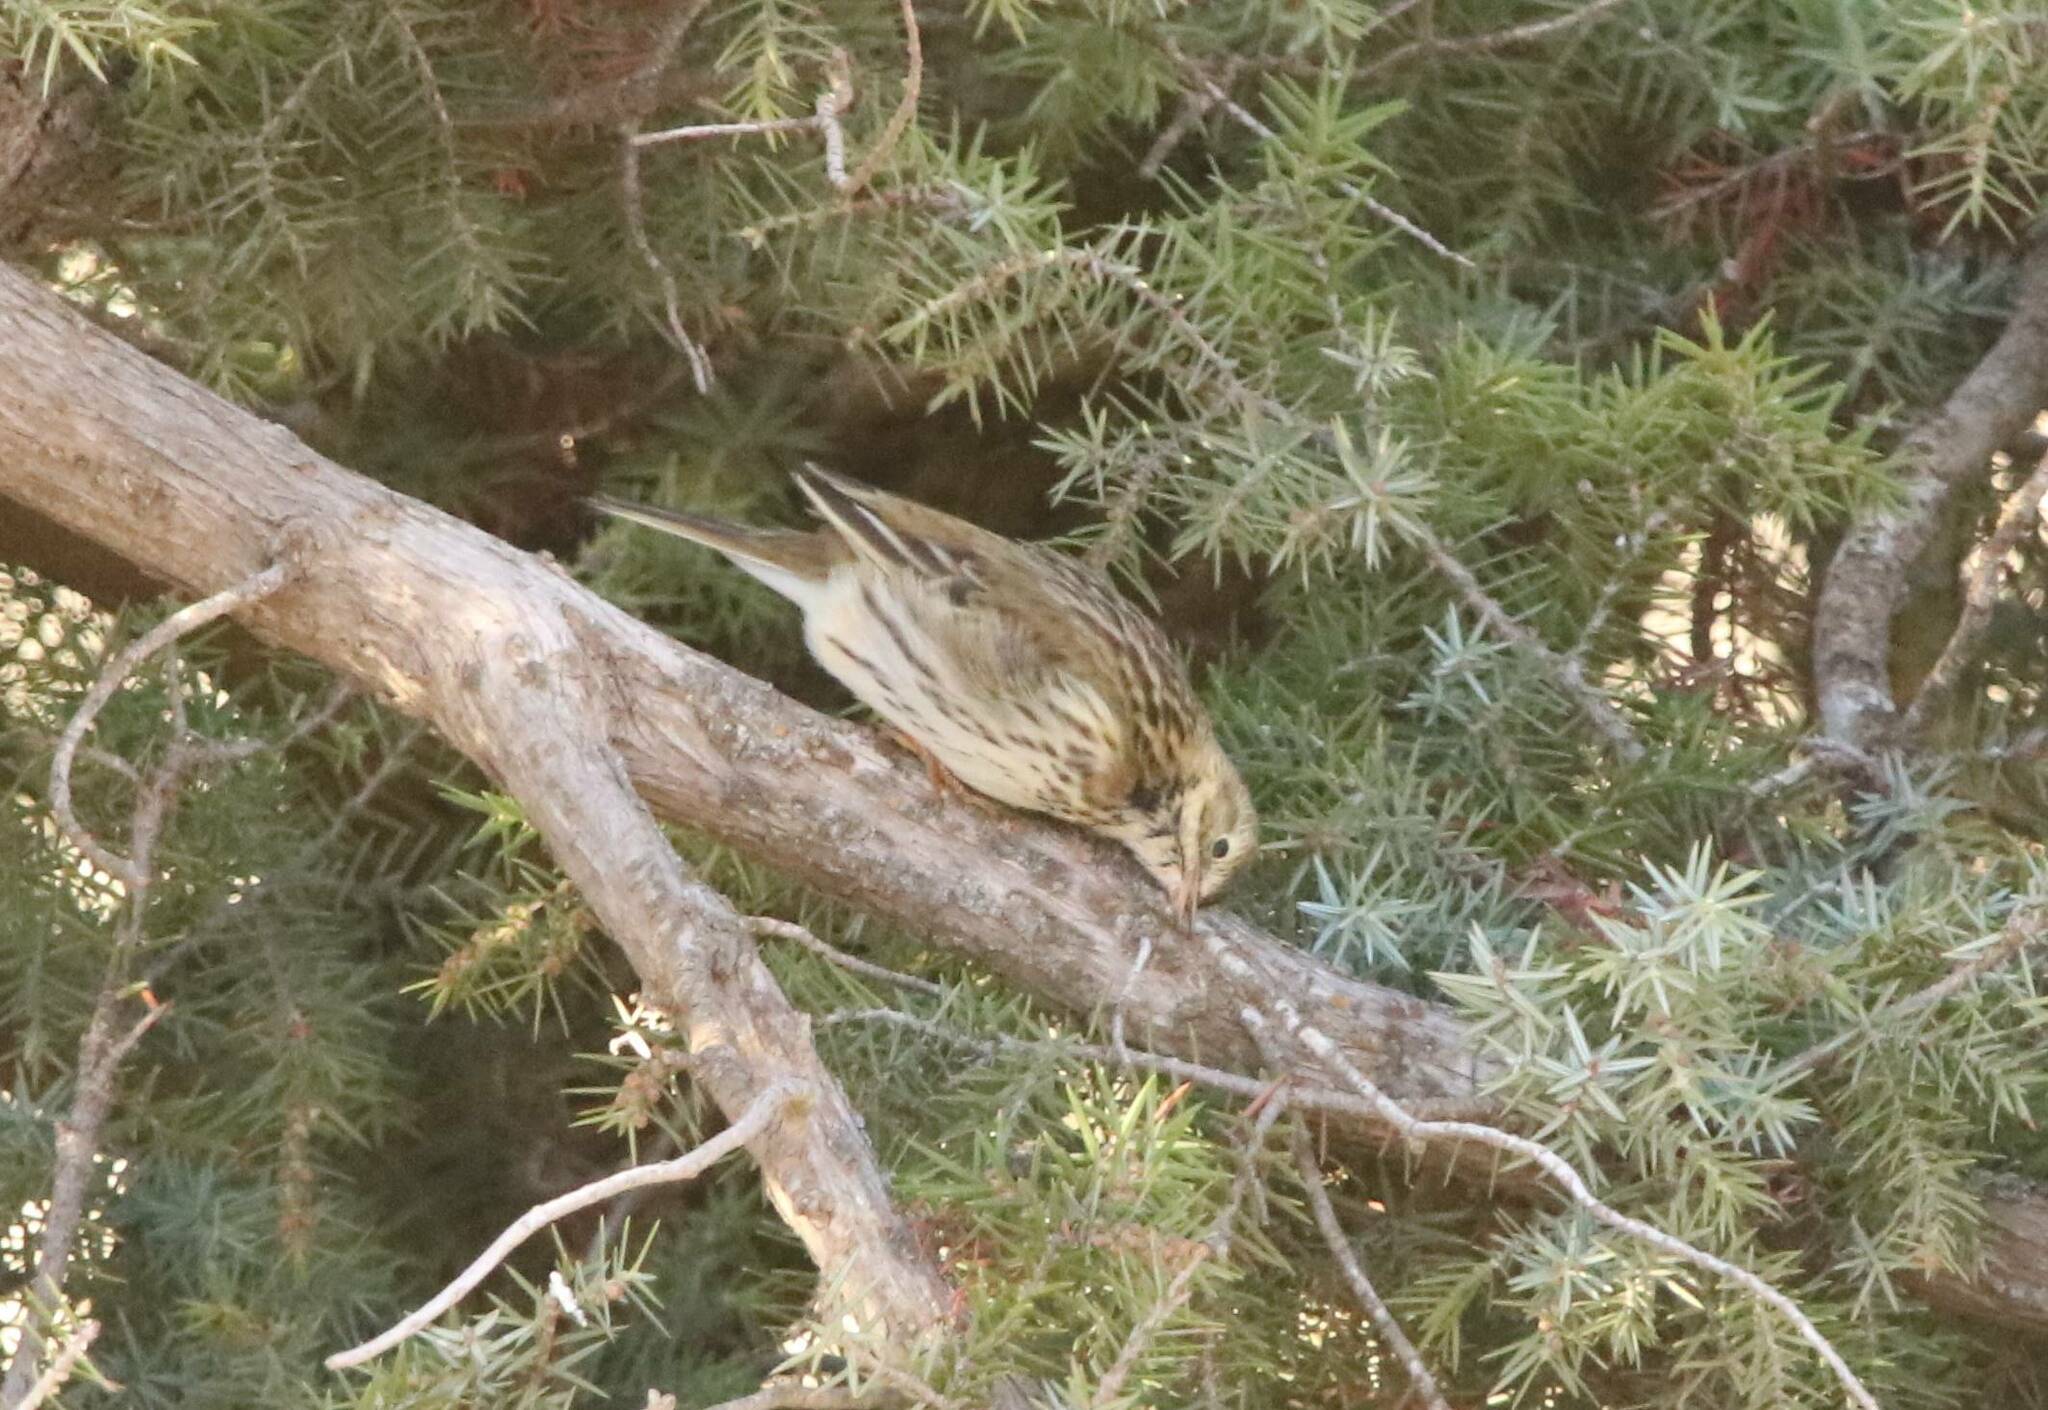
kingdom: Animalia
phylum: Chordata
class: Aves
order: Passeriformes
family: Motacillidae
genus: Anthus
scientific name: Anthus pratensis
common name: Meadow pipit
